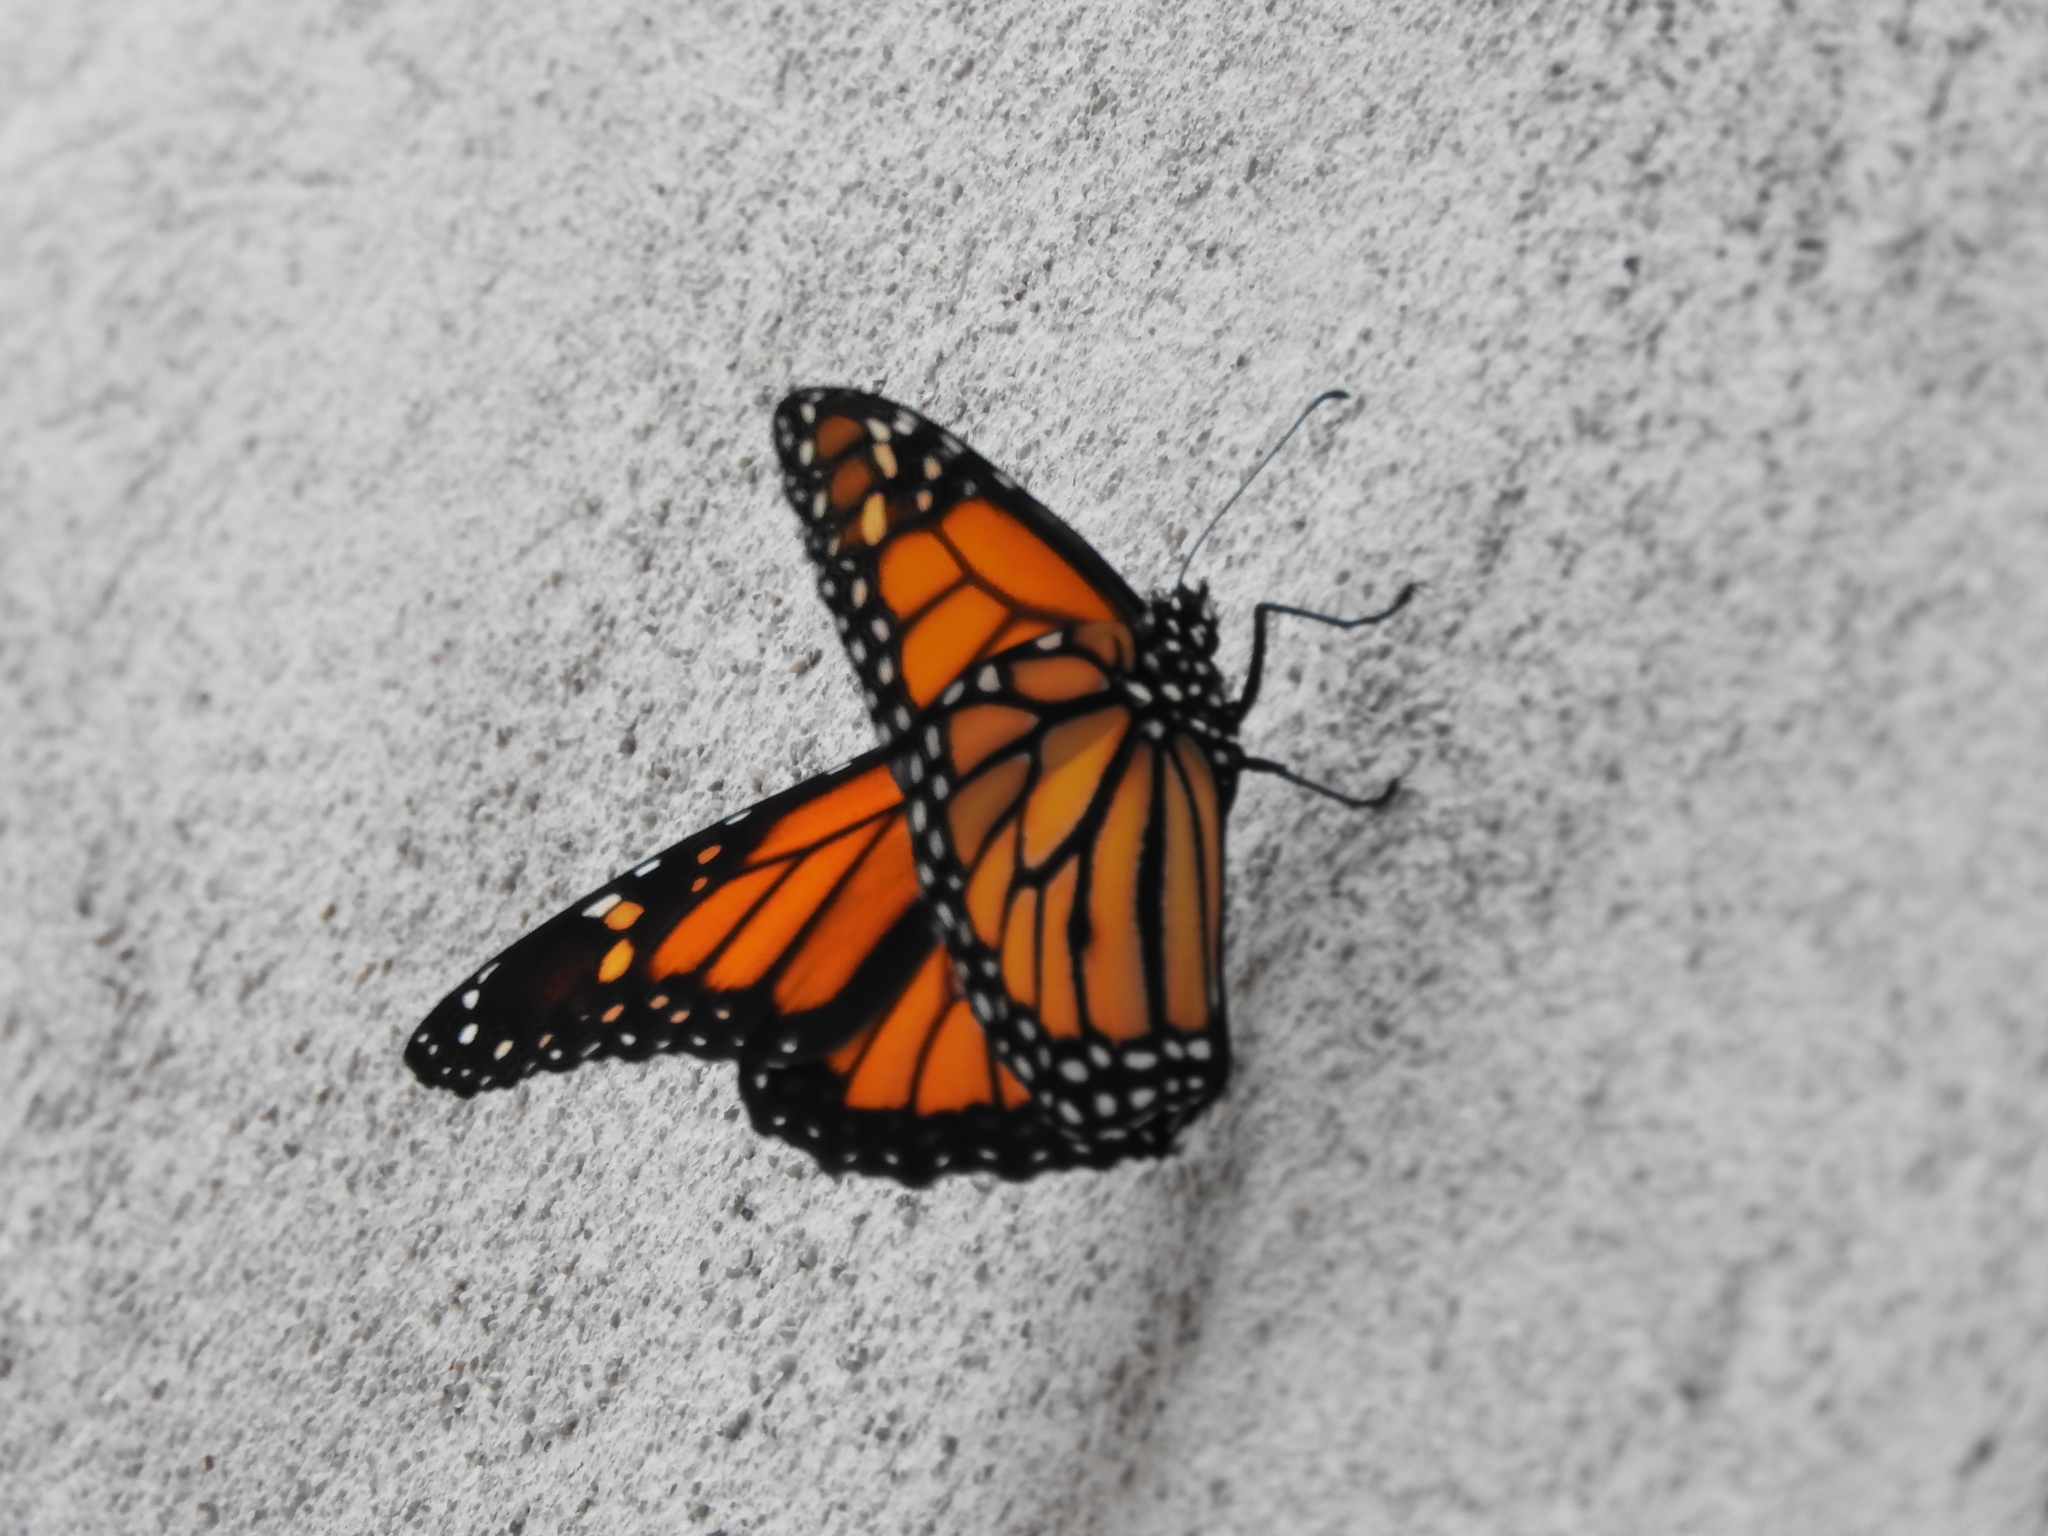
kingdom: Animalia
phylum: Arthropoda
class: Insecta
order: Lepidoptera
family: Nymphalidae
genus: Danaus
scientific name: Danaus plexippus
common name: Monarch
